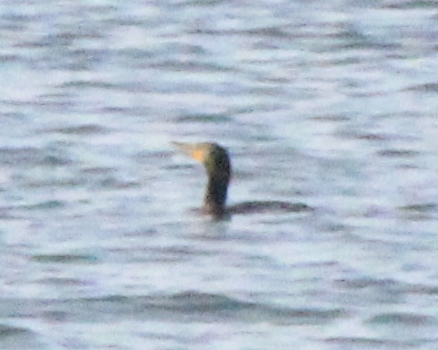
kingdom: Animalia
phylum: Chordata
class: Aves
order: Suliformes
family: Phalacrocoracidae
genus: Phalacrocorax
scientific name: Phalacrocorax auritus
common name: Double-crested cormorant
